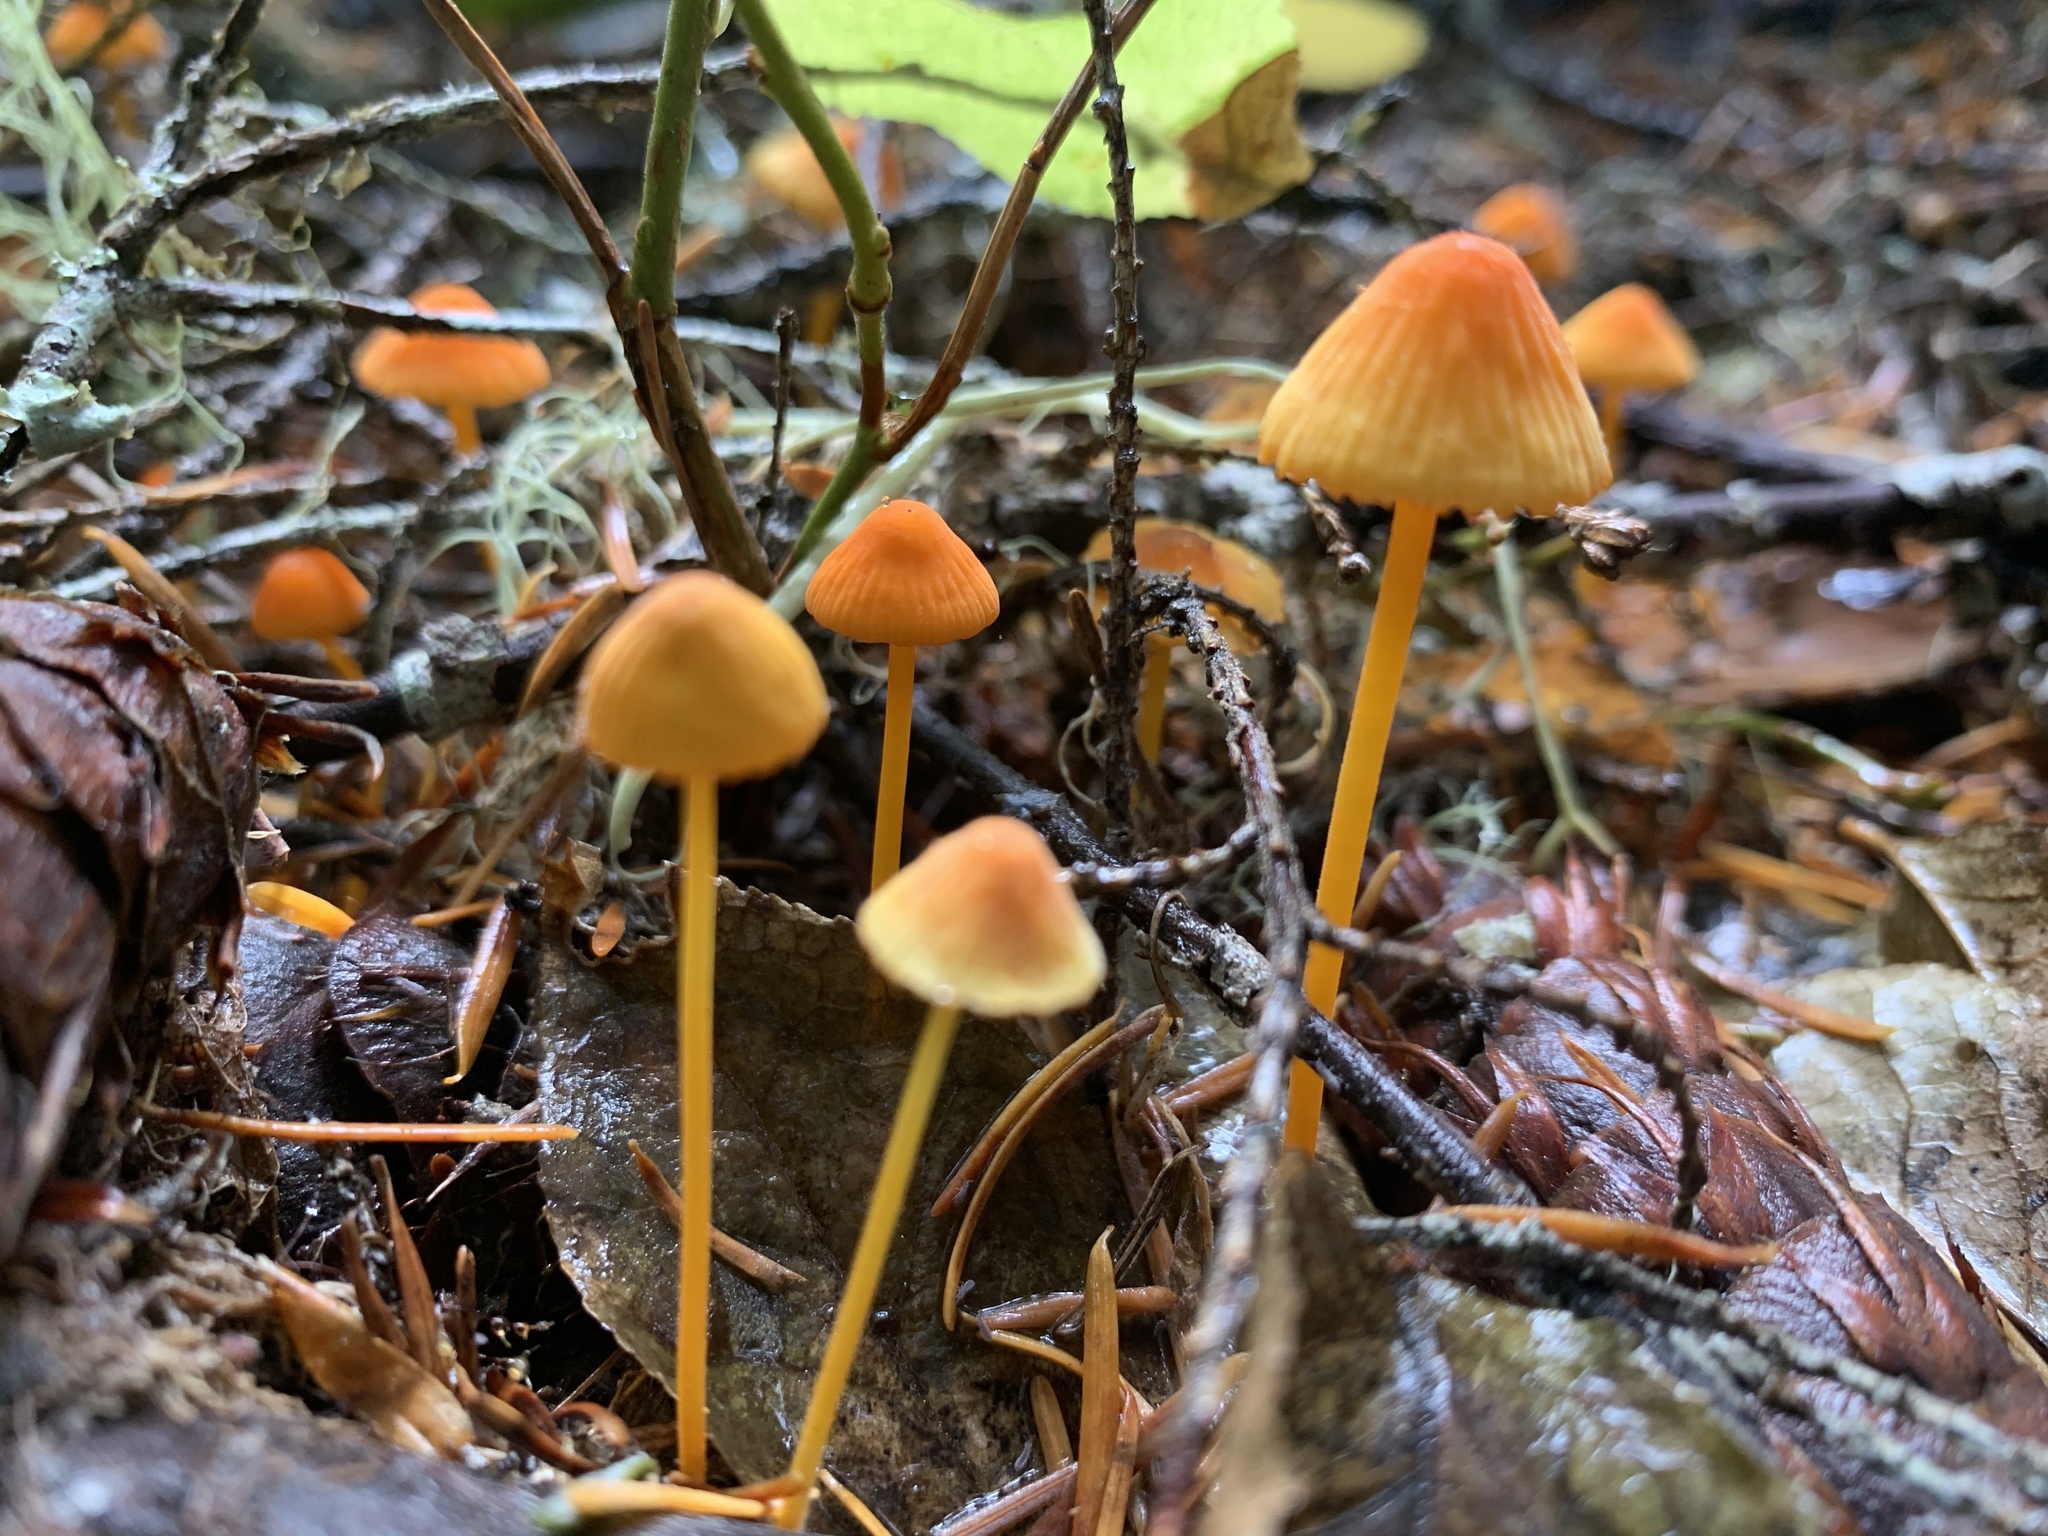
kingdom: Fungi
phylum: Basidiomycota
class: Agaricomycetes
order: Agaricales
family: Mycenaceae
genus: Mycena
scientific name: Mycena strobilinoidea
